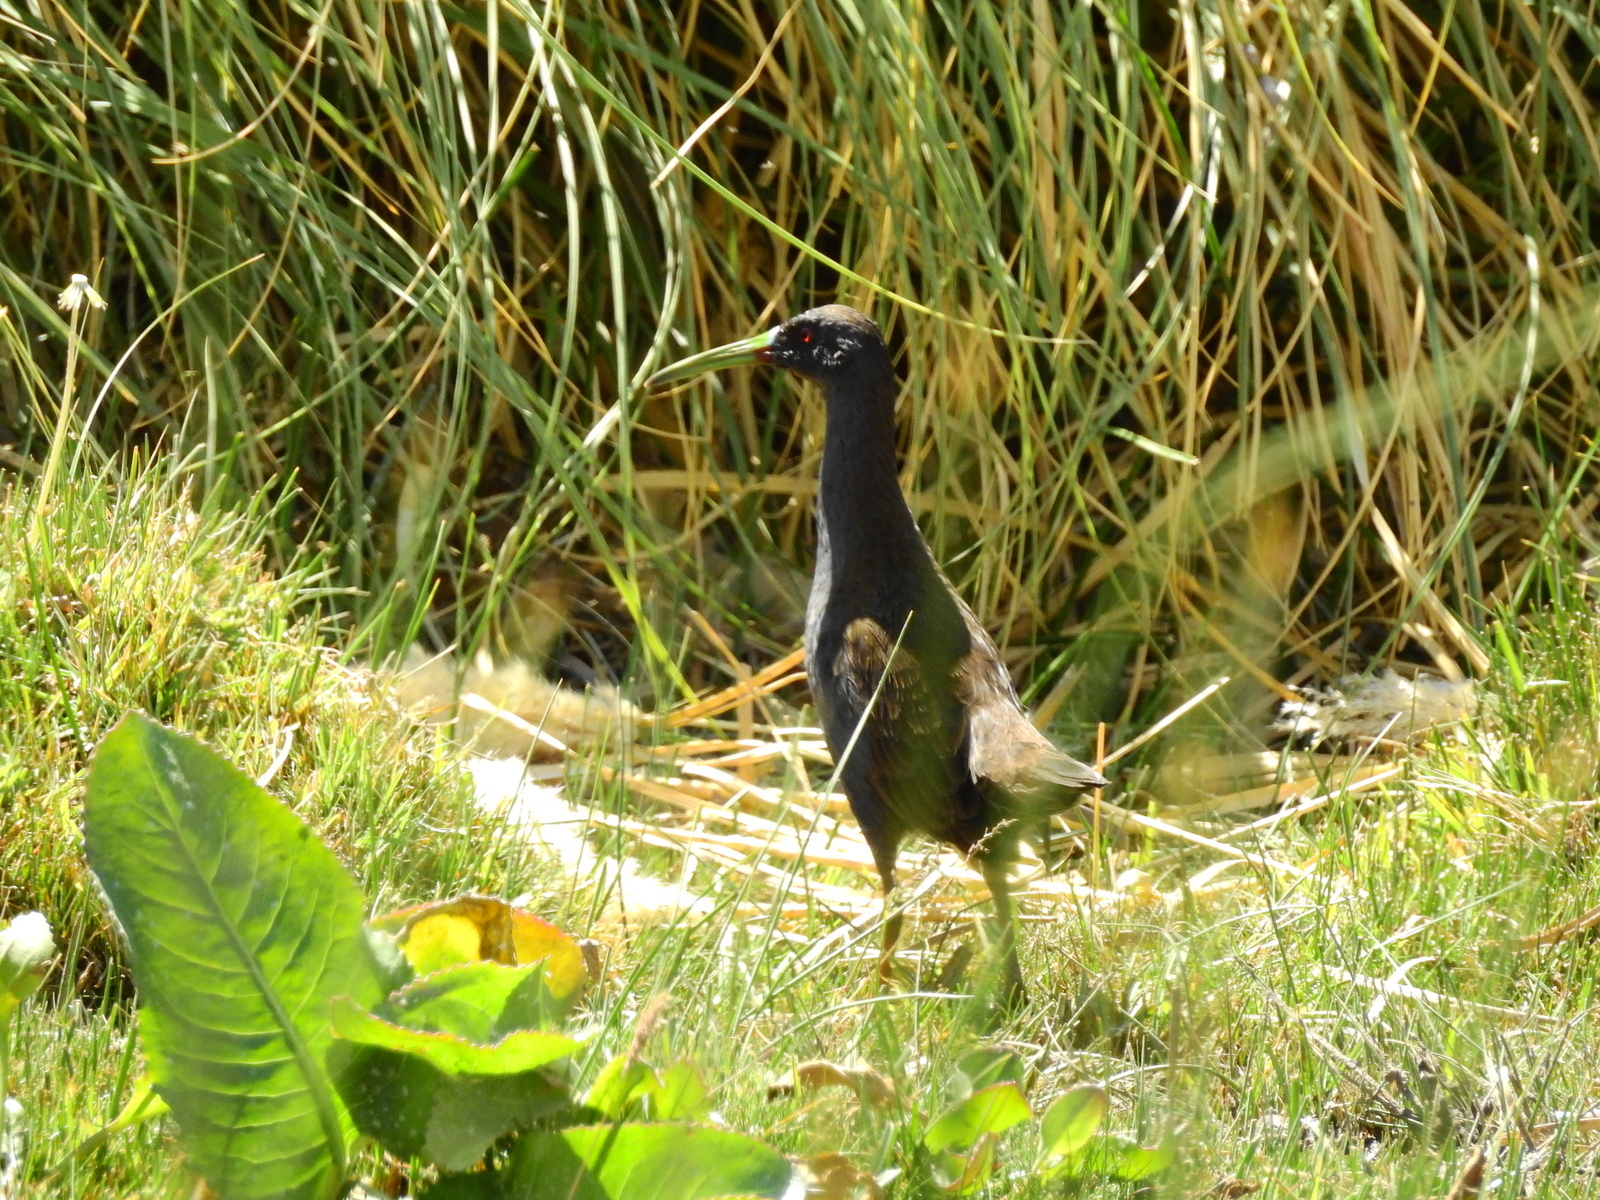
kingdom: Animalia
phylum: Chordata
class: Aves
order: Gruiformes
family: Rallidae
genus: Pardirallus
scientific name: Pardirallus sanguinolentus
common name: Plumbeous rail
